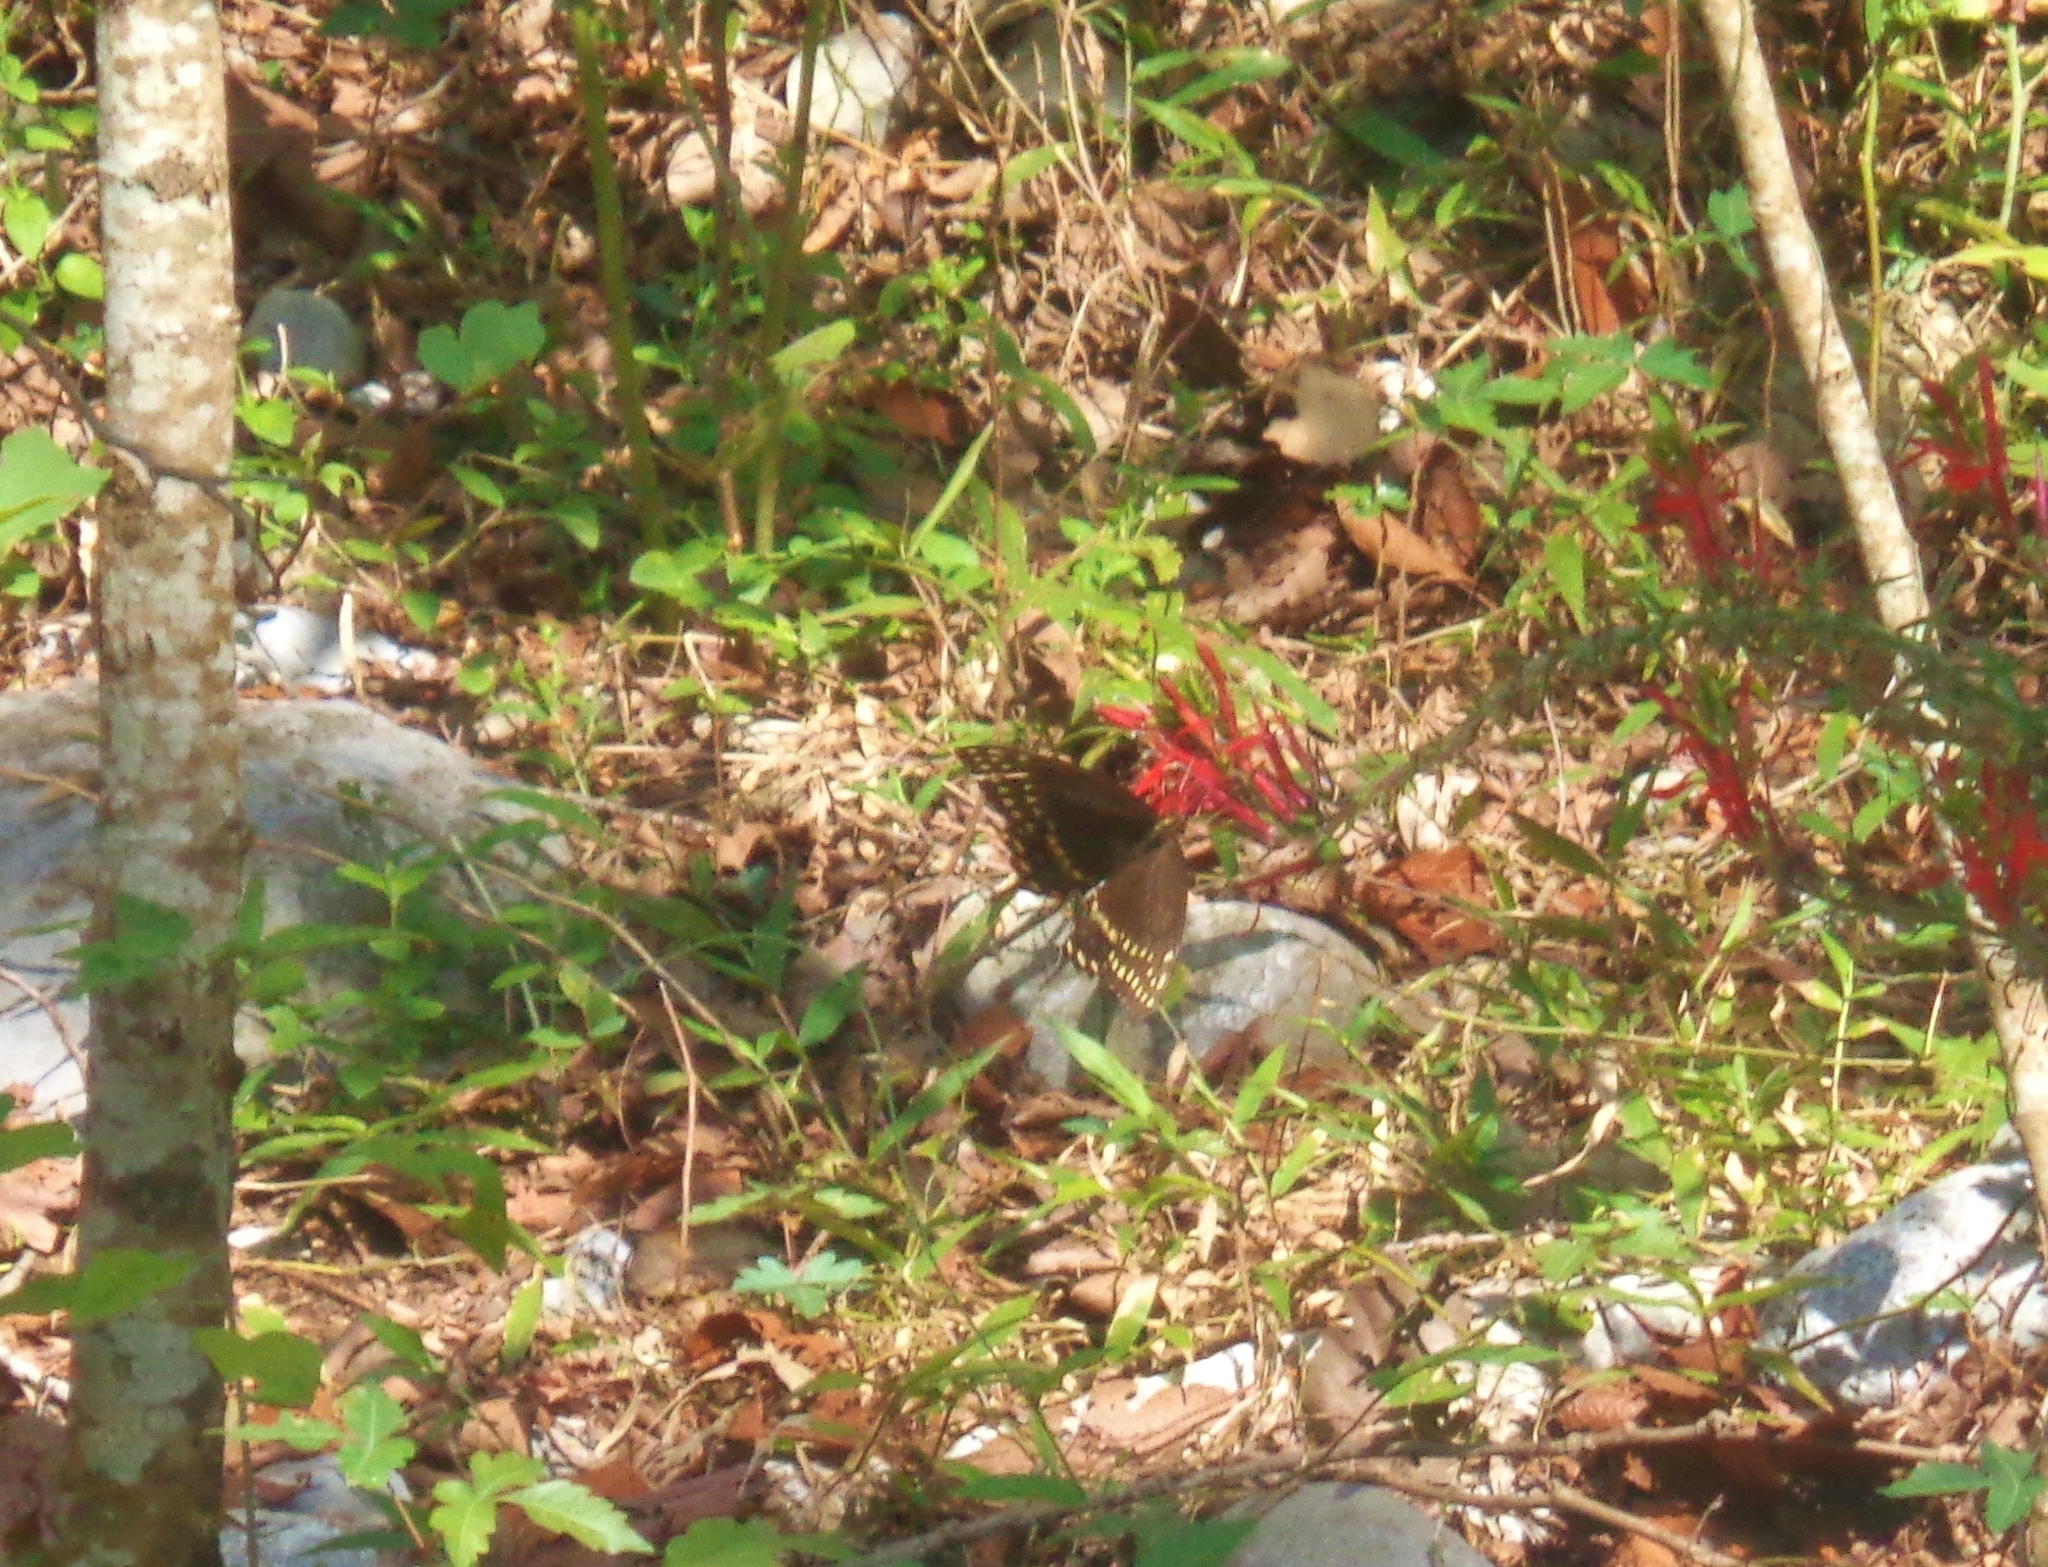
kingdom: Animalia
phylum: Arthropoda
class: Insecta
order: Lepidoptera
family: Papilionidae
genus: Papilio
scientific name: Papilio palamedes
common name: Palamedes swallowtail
